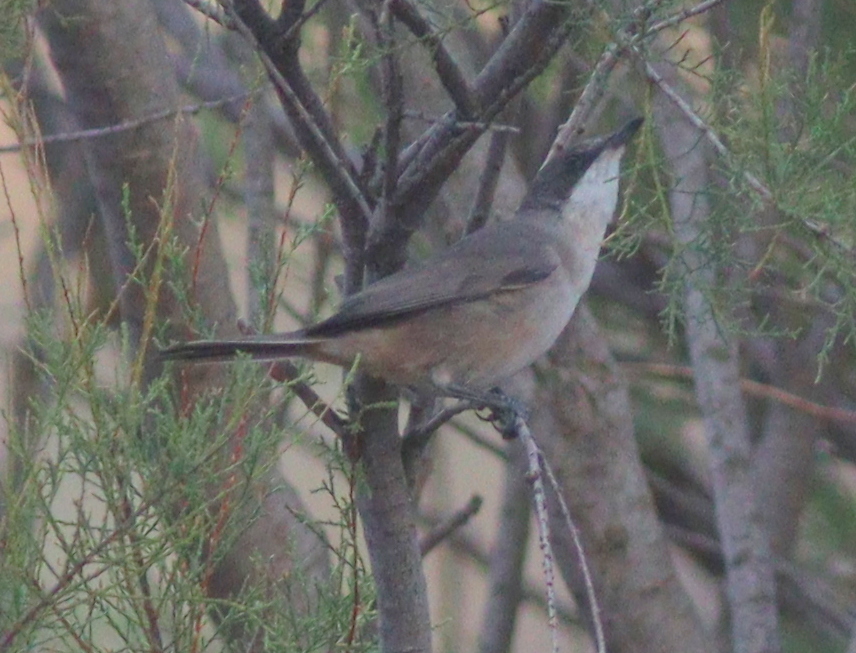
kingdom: Animalia
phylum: Chordata
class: Aves
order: Passeriformes
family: Sylviidae
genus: Sylvia
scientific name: Sylvia hortensis
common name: Orphean warbler
